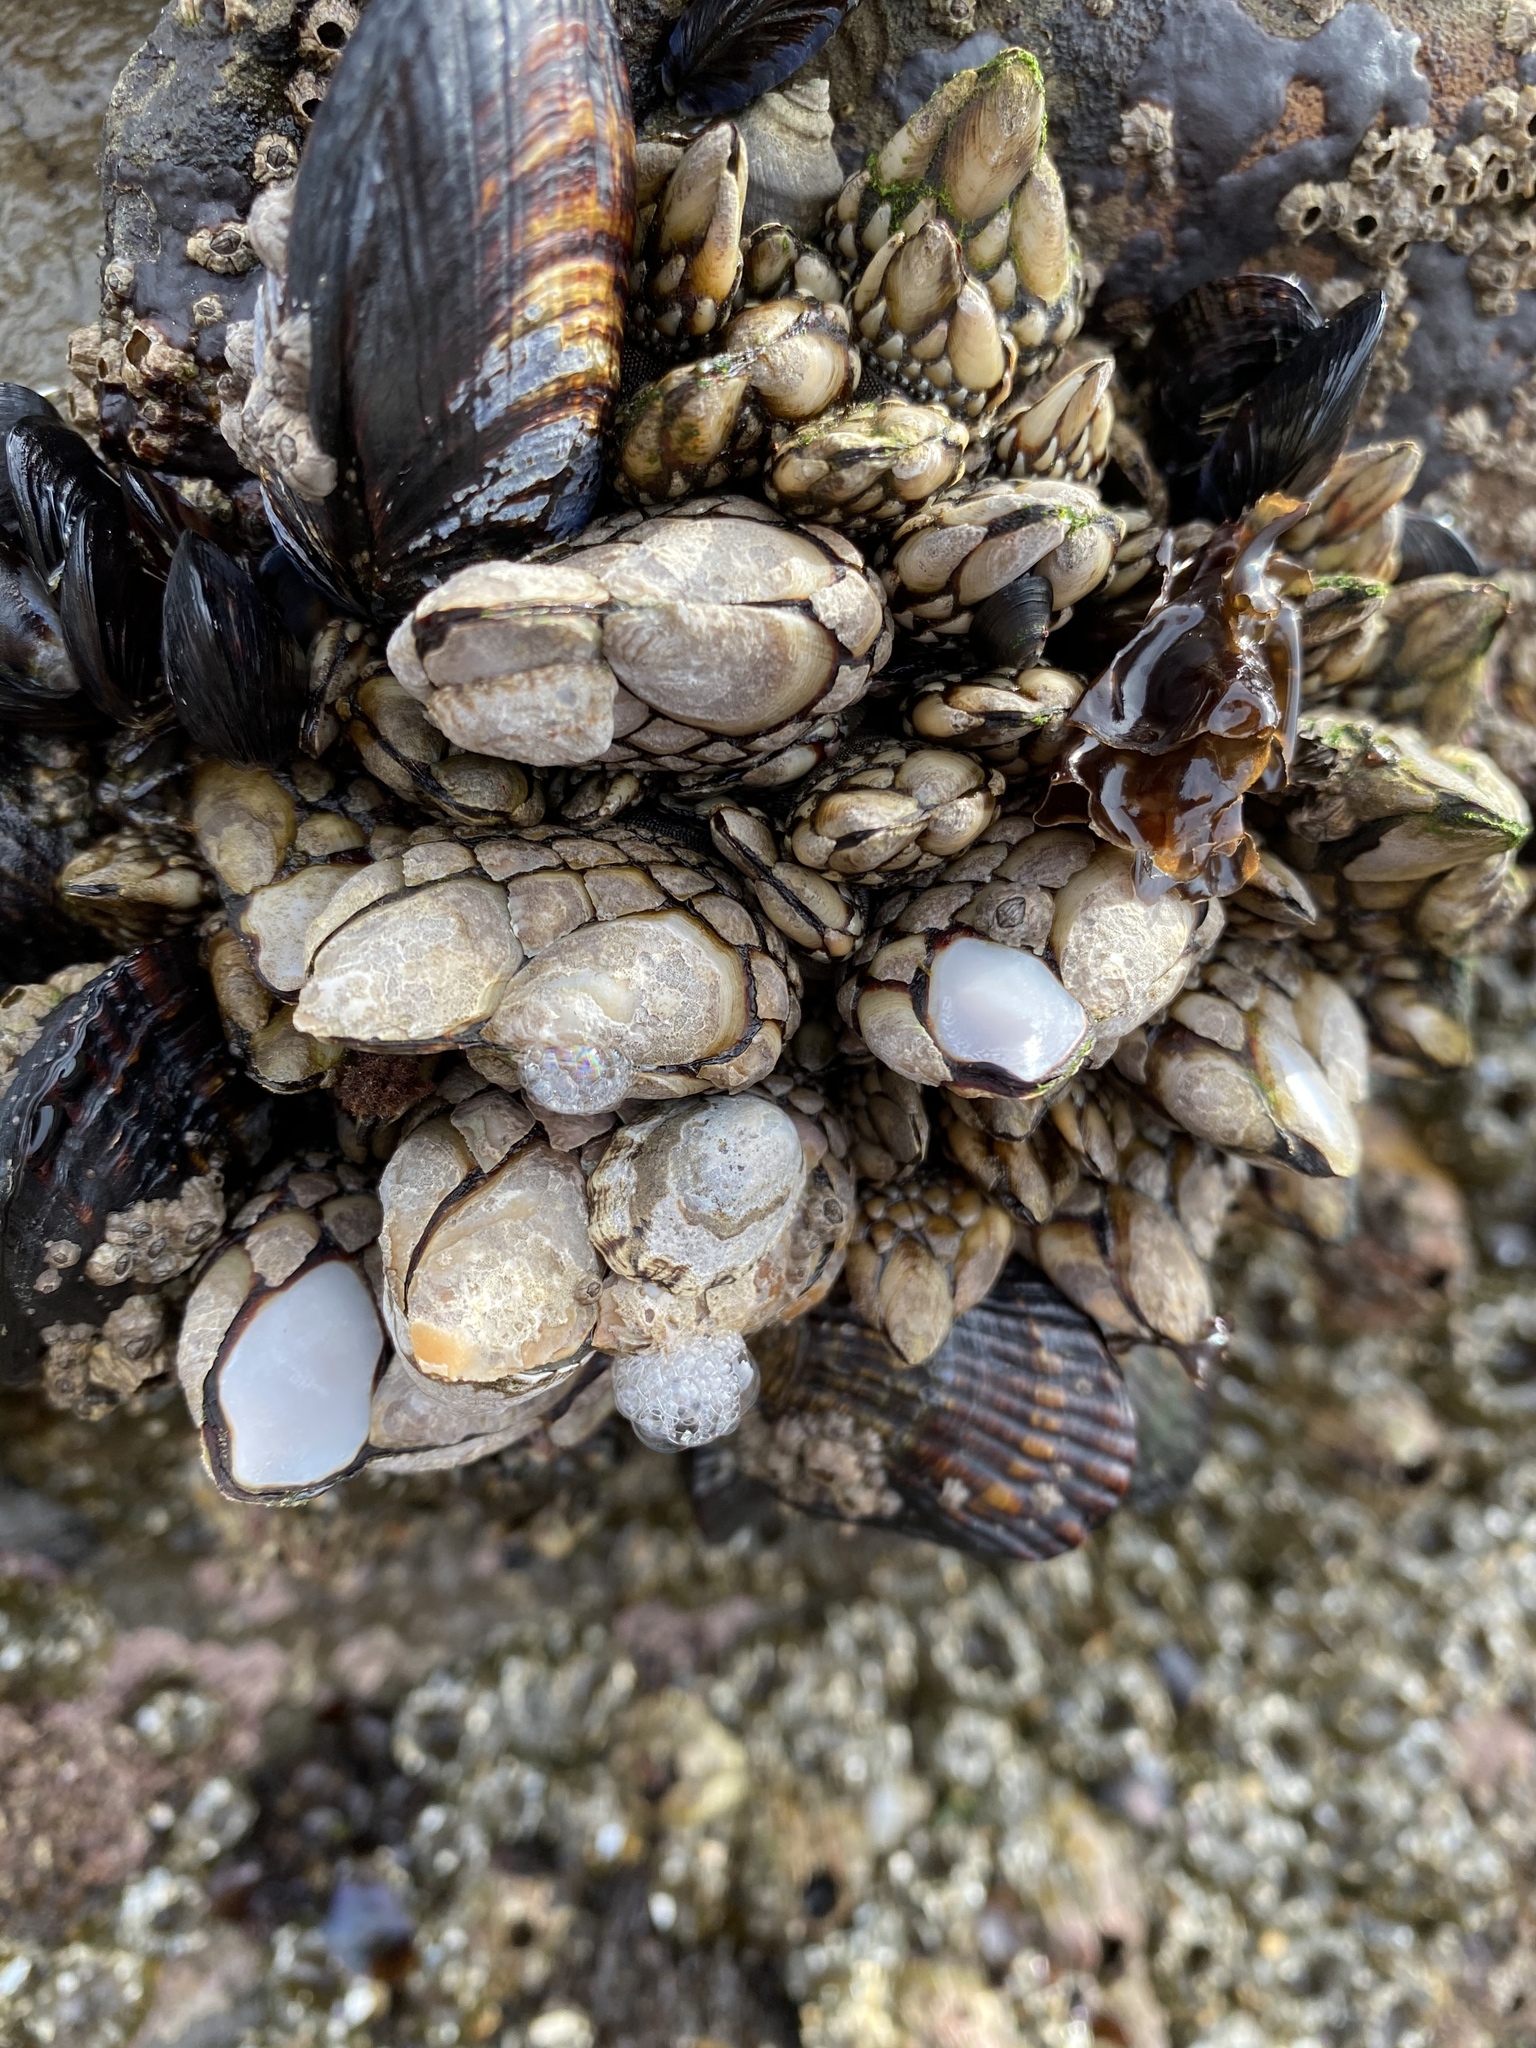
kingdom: Animalia
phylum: Arthropoda
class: Maxillopoda
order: Pedunculata
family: Pollicipedidae
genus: Pollicipes
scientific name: Pollicipes polymerus
